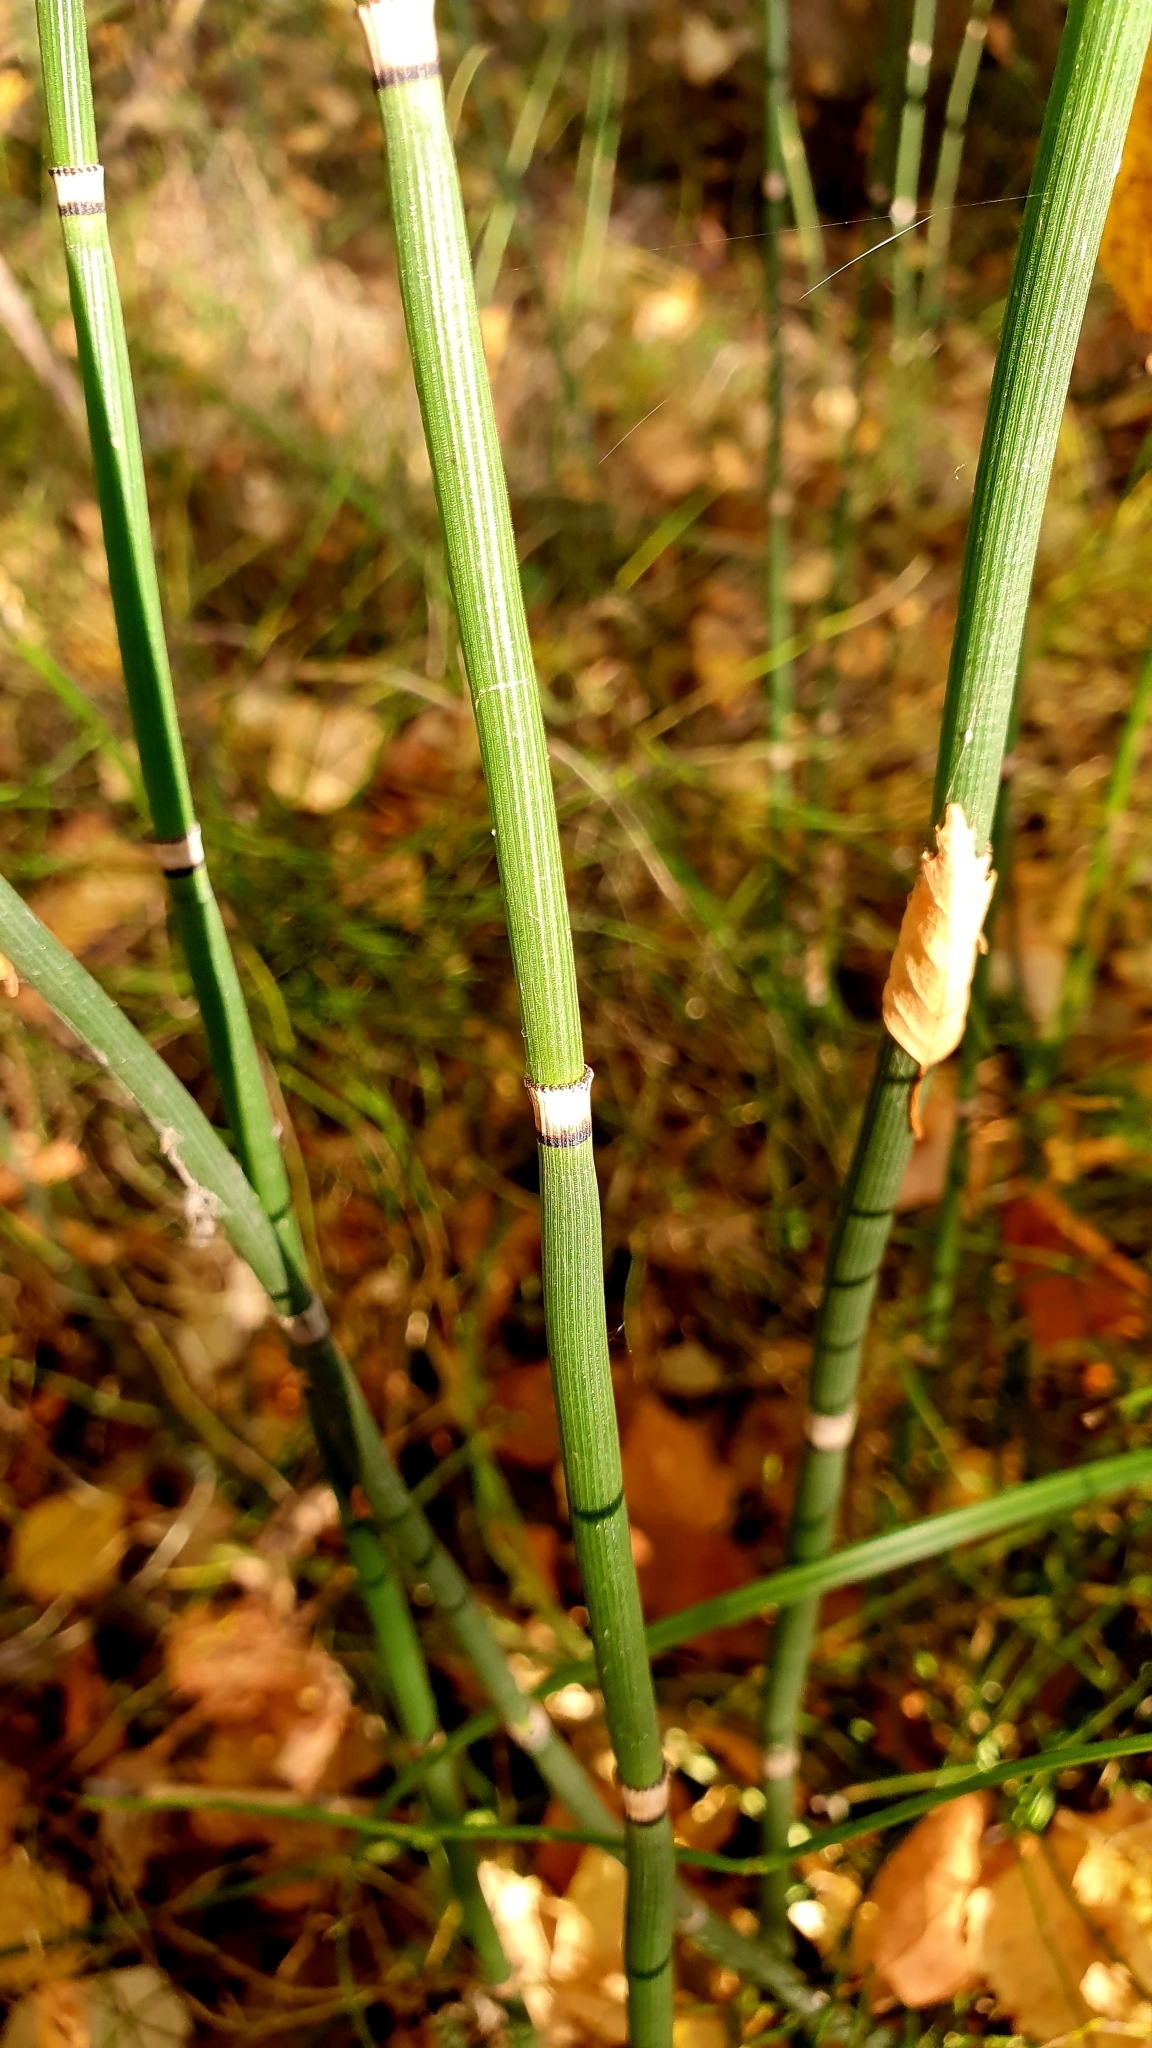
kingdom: Plantae
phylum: Tracheophyta
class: Polypodiopsida
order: Equisetales
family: Equisetaceae
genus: Equisetum
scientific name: Equisetum hyemale
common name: Rough horsetail
